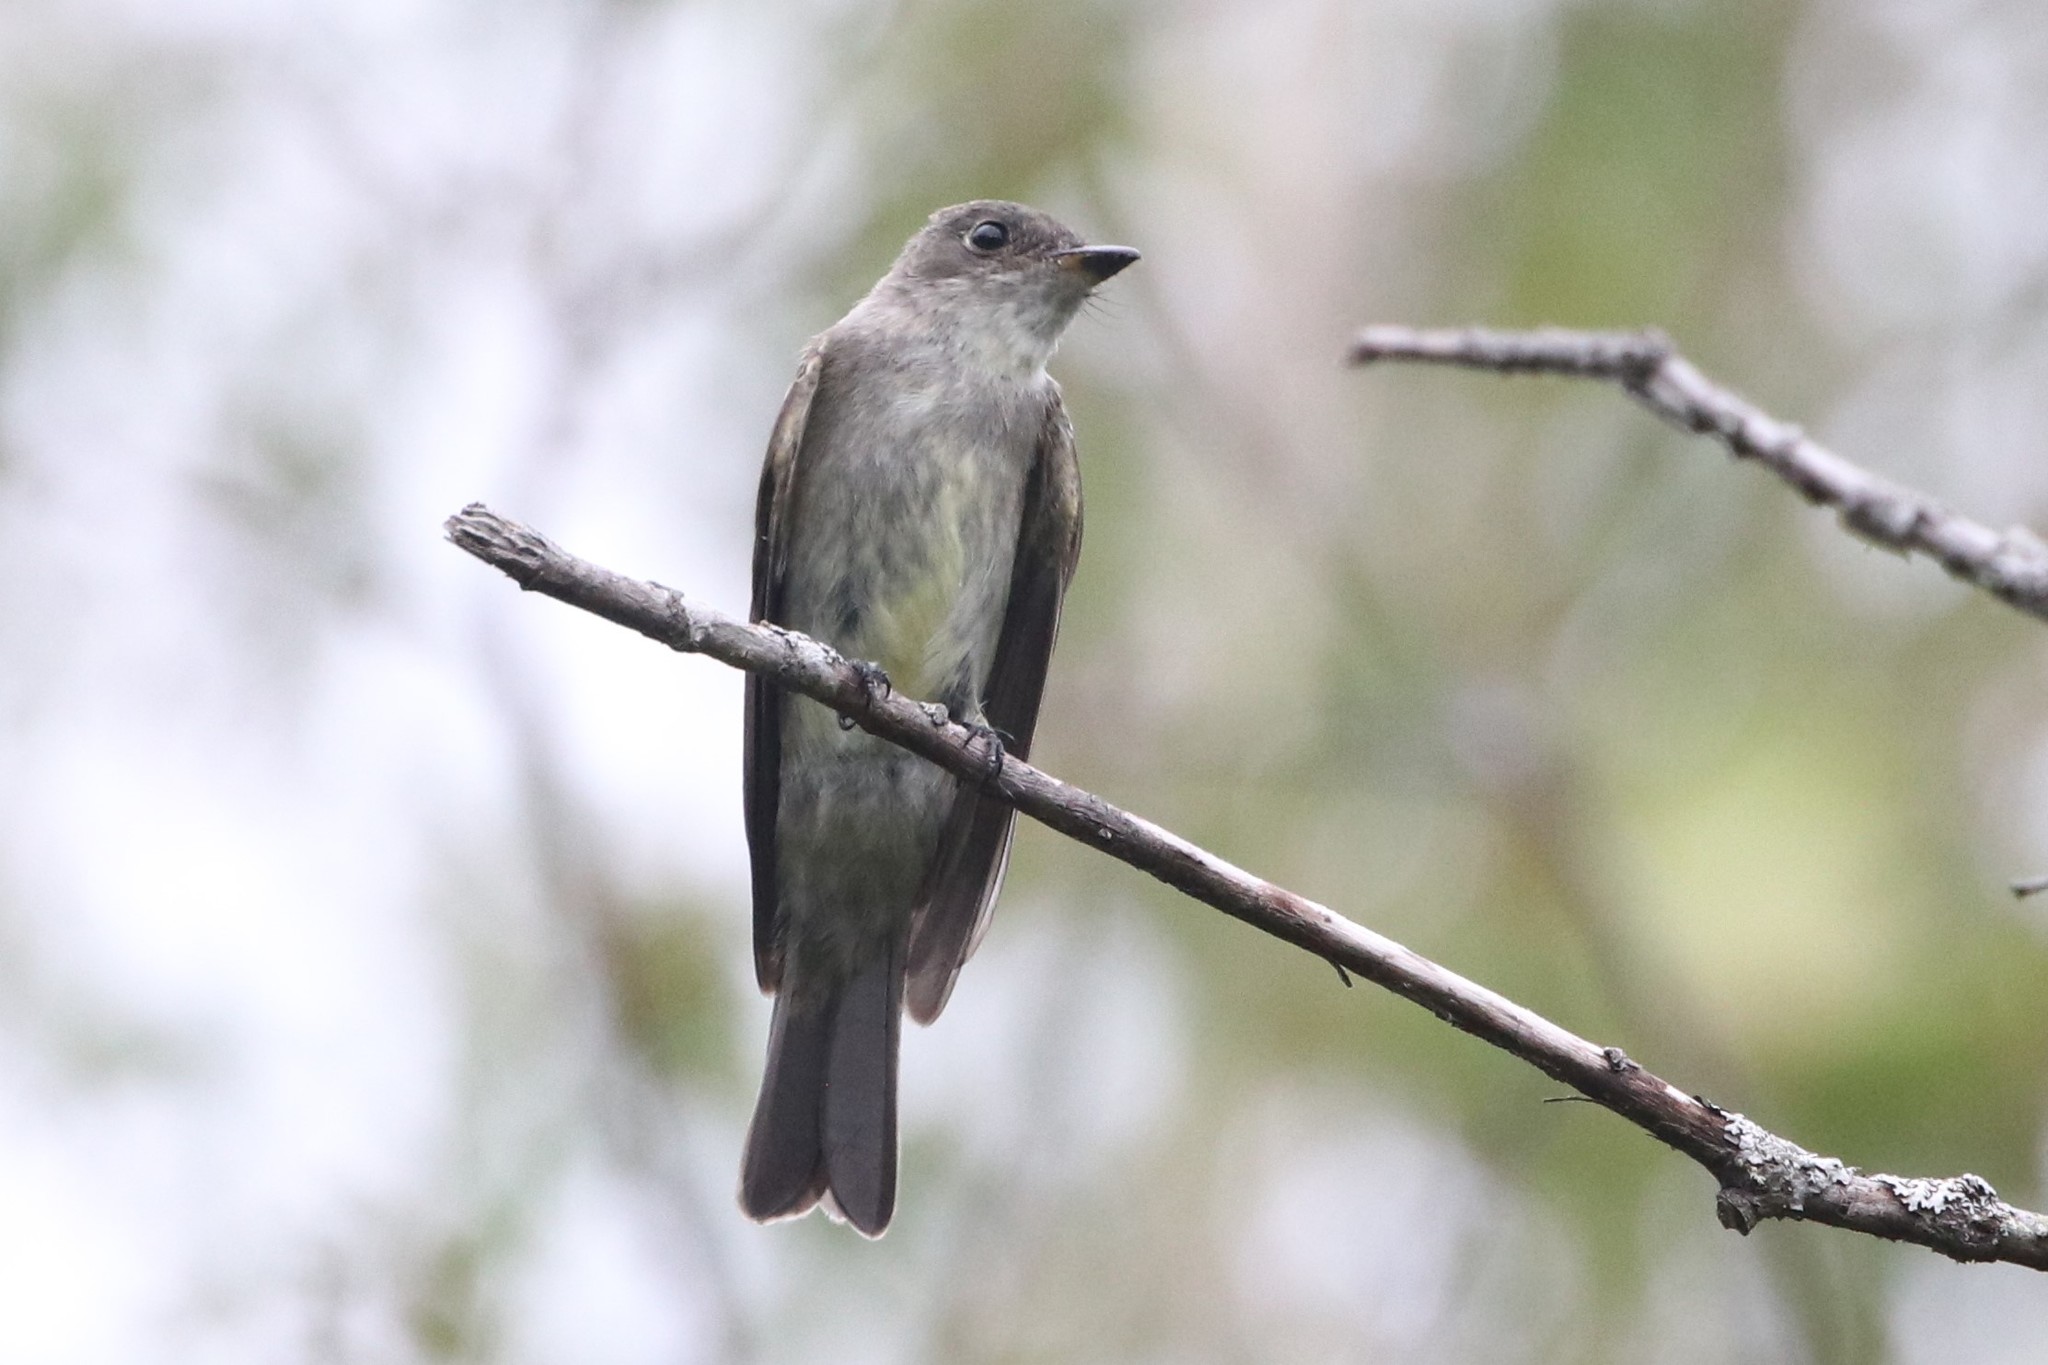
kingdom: Animalia
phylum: Chordata
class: Aves
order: Passeriformes
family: Tyrannidae
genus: Contopus
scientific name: Contopus virens
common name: Eastern wood-pewee
